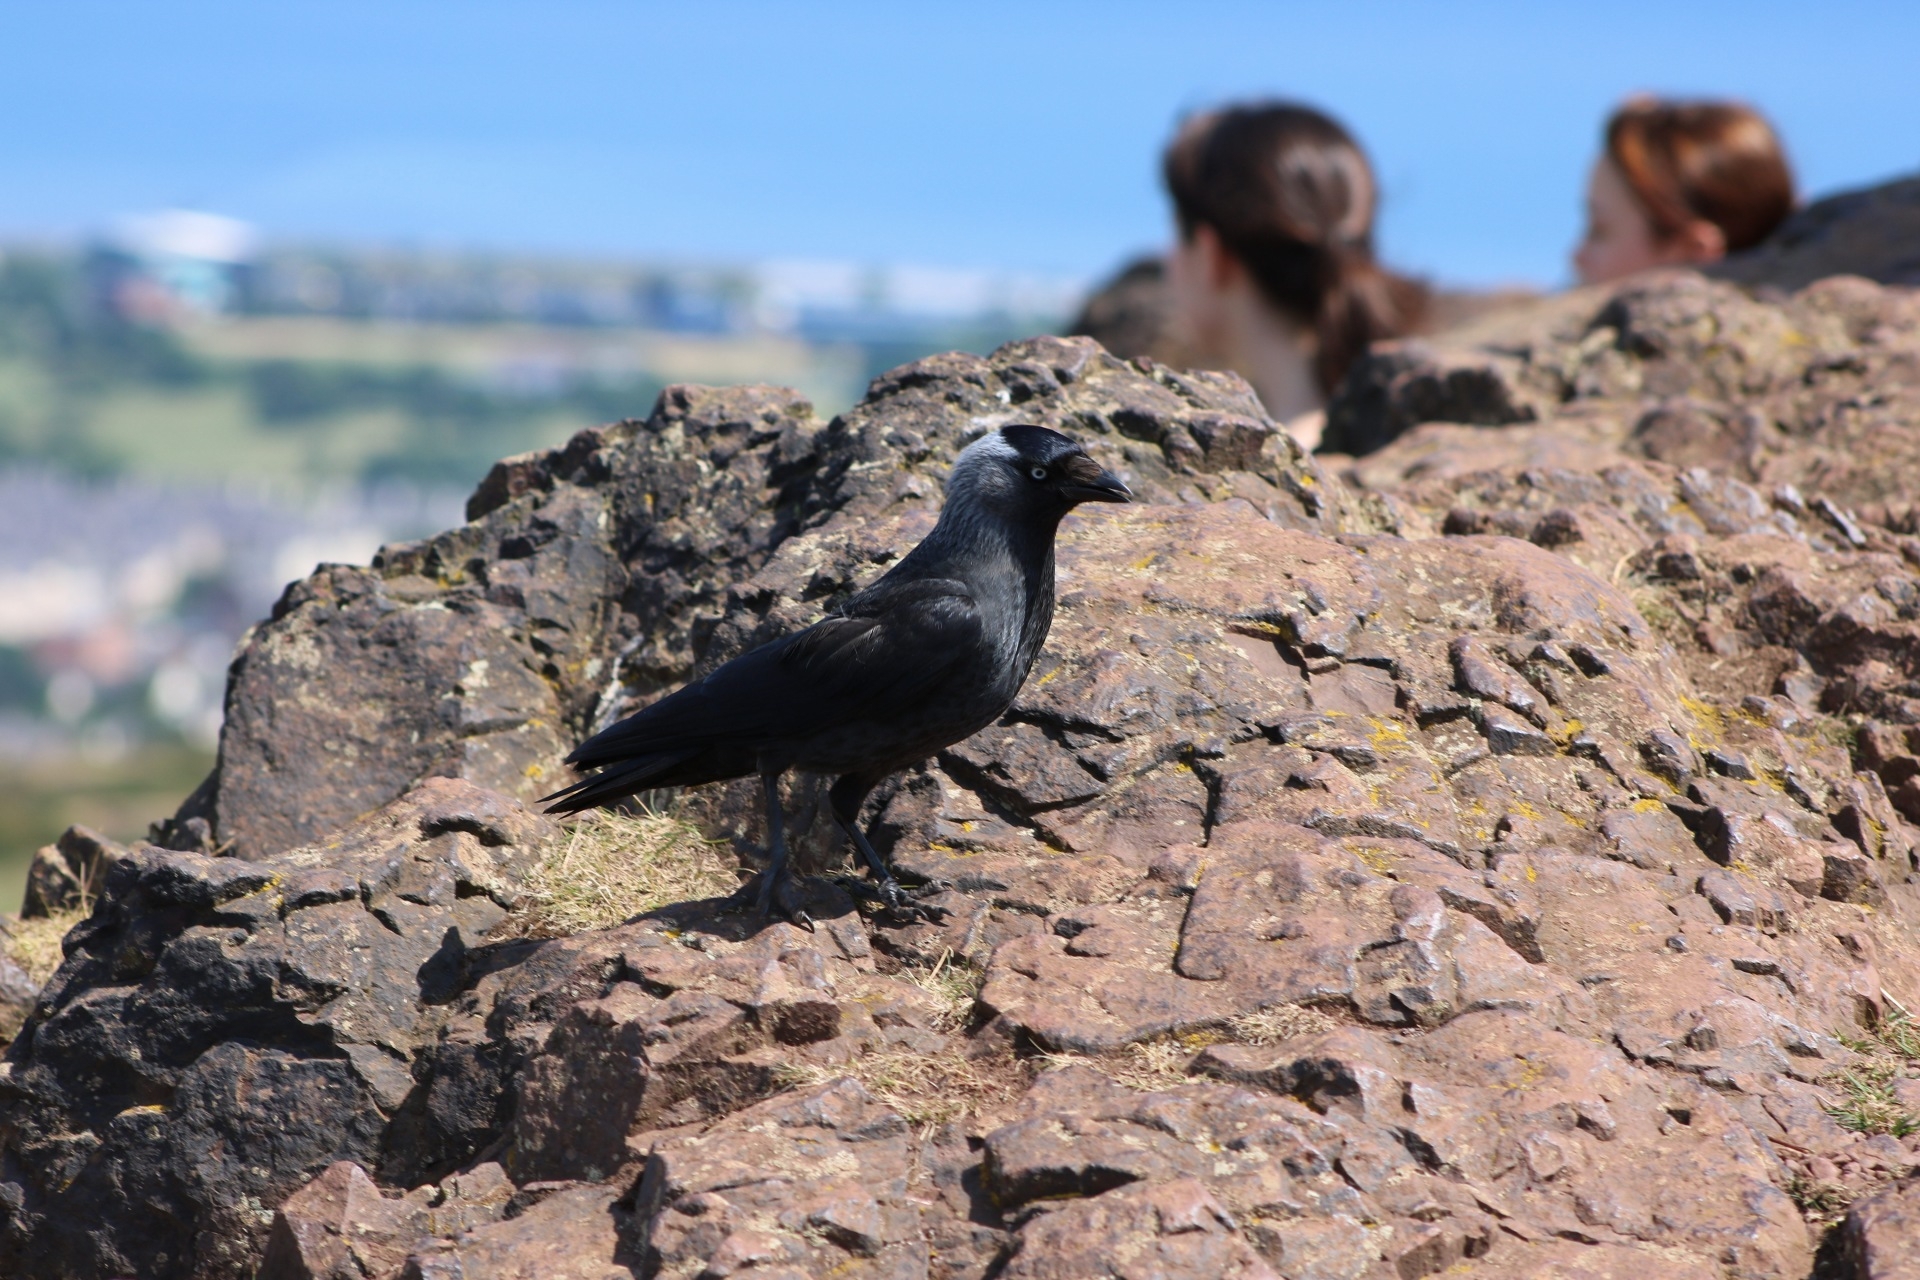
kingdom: Animalia
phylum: Chordata
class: Aves
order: Passeriformes
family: Corvidae
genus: Coloeus
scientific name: Coloeus monedula
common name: Western jackdaw
